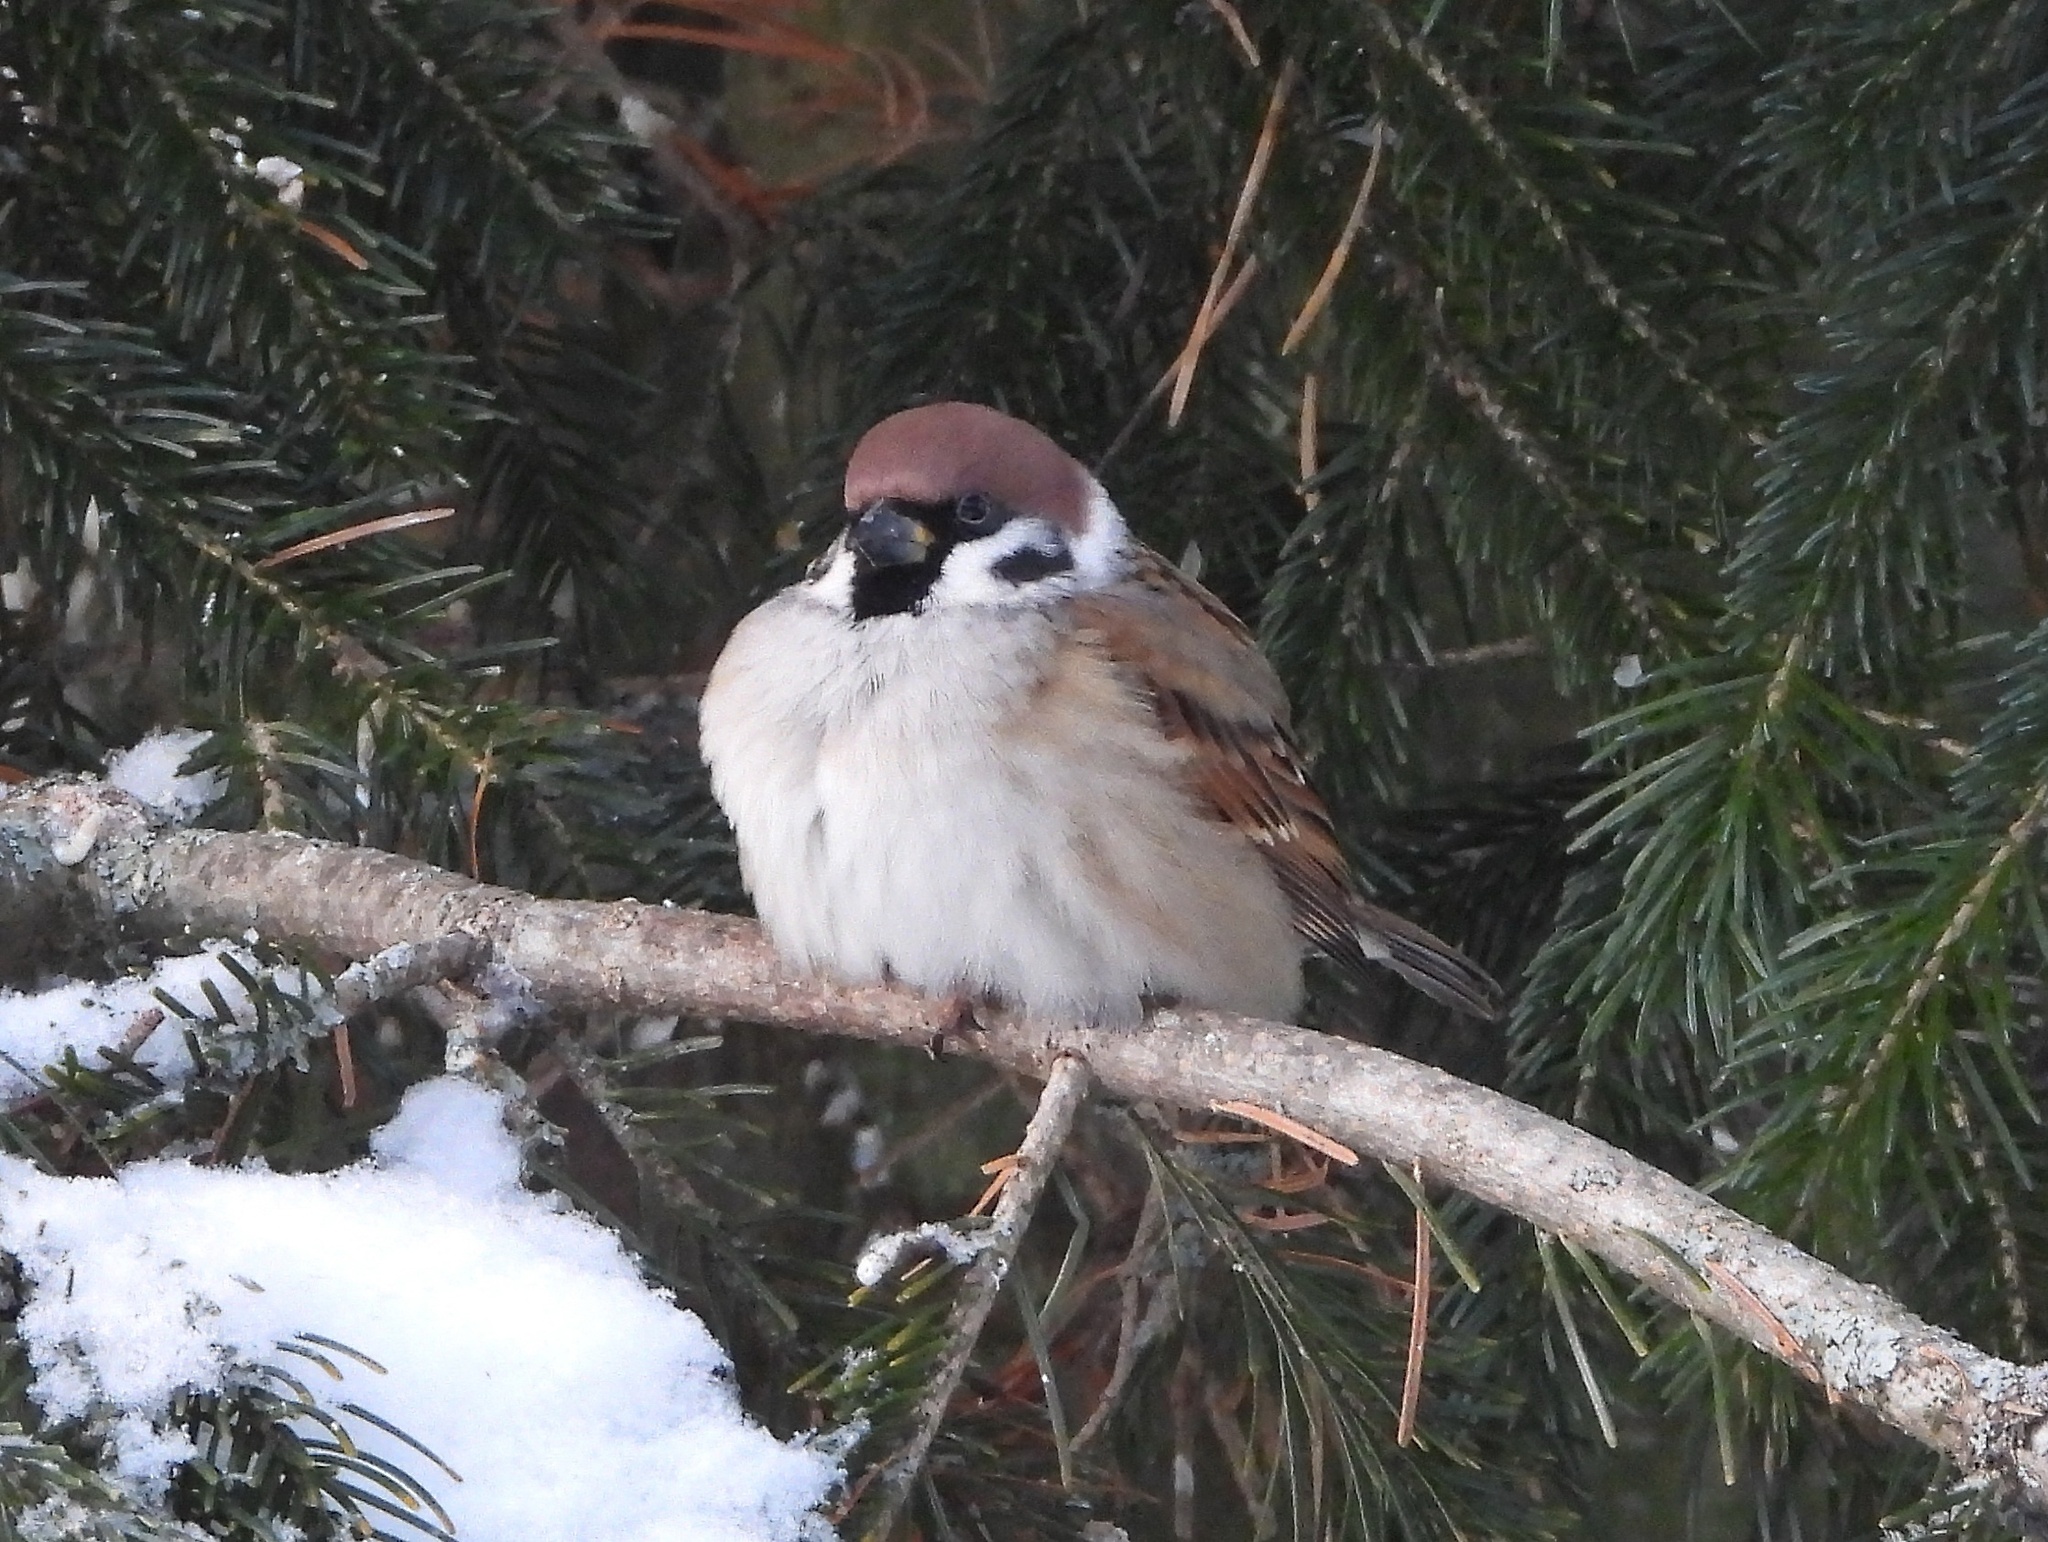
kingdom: Animalia
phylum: Chordata
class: Aves
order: Passeriformes
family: Passeridae
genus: Passer
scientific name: Passer montanus
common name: Eurasian tree sparrow
